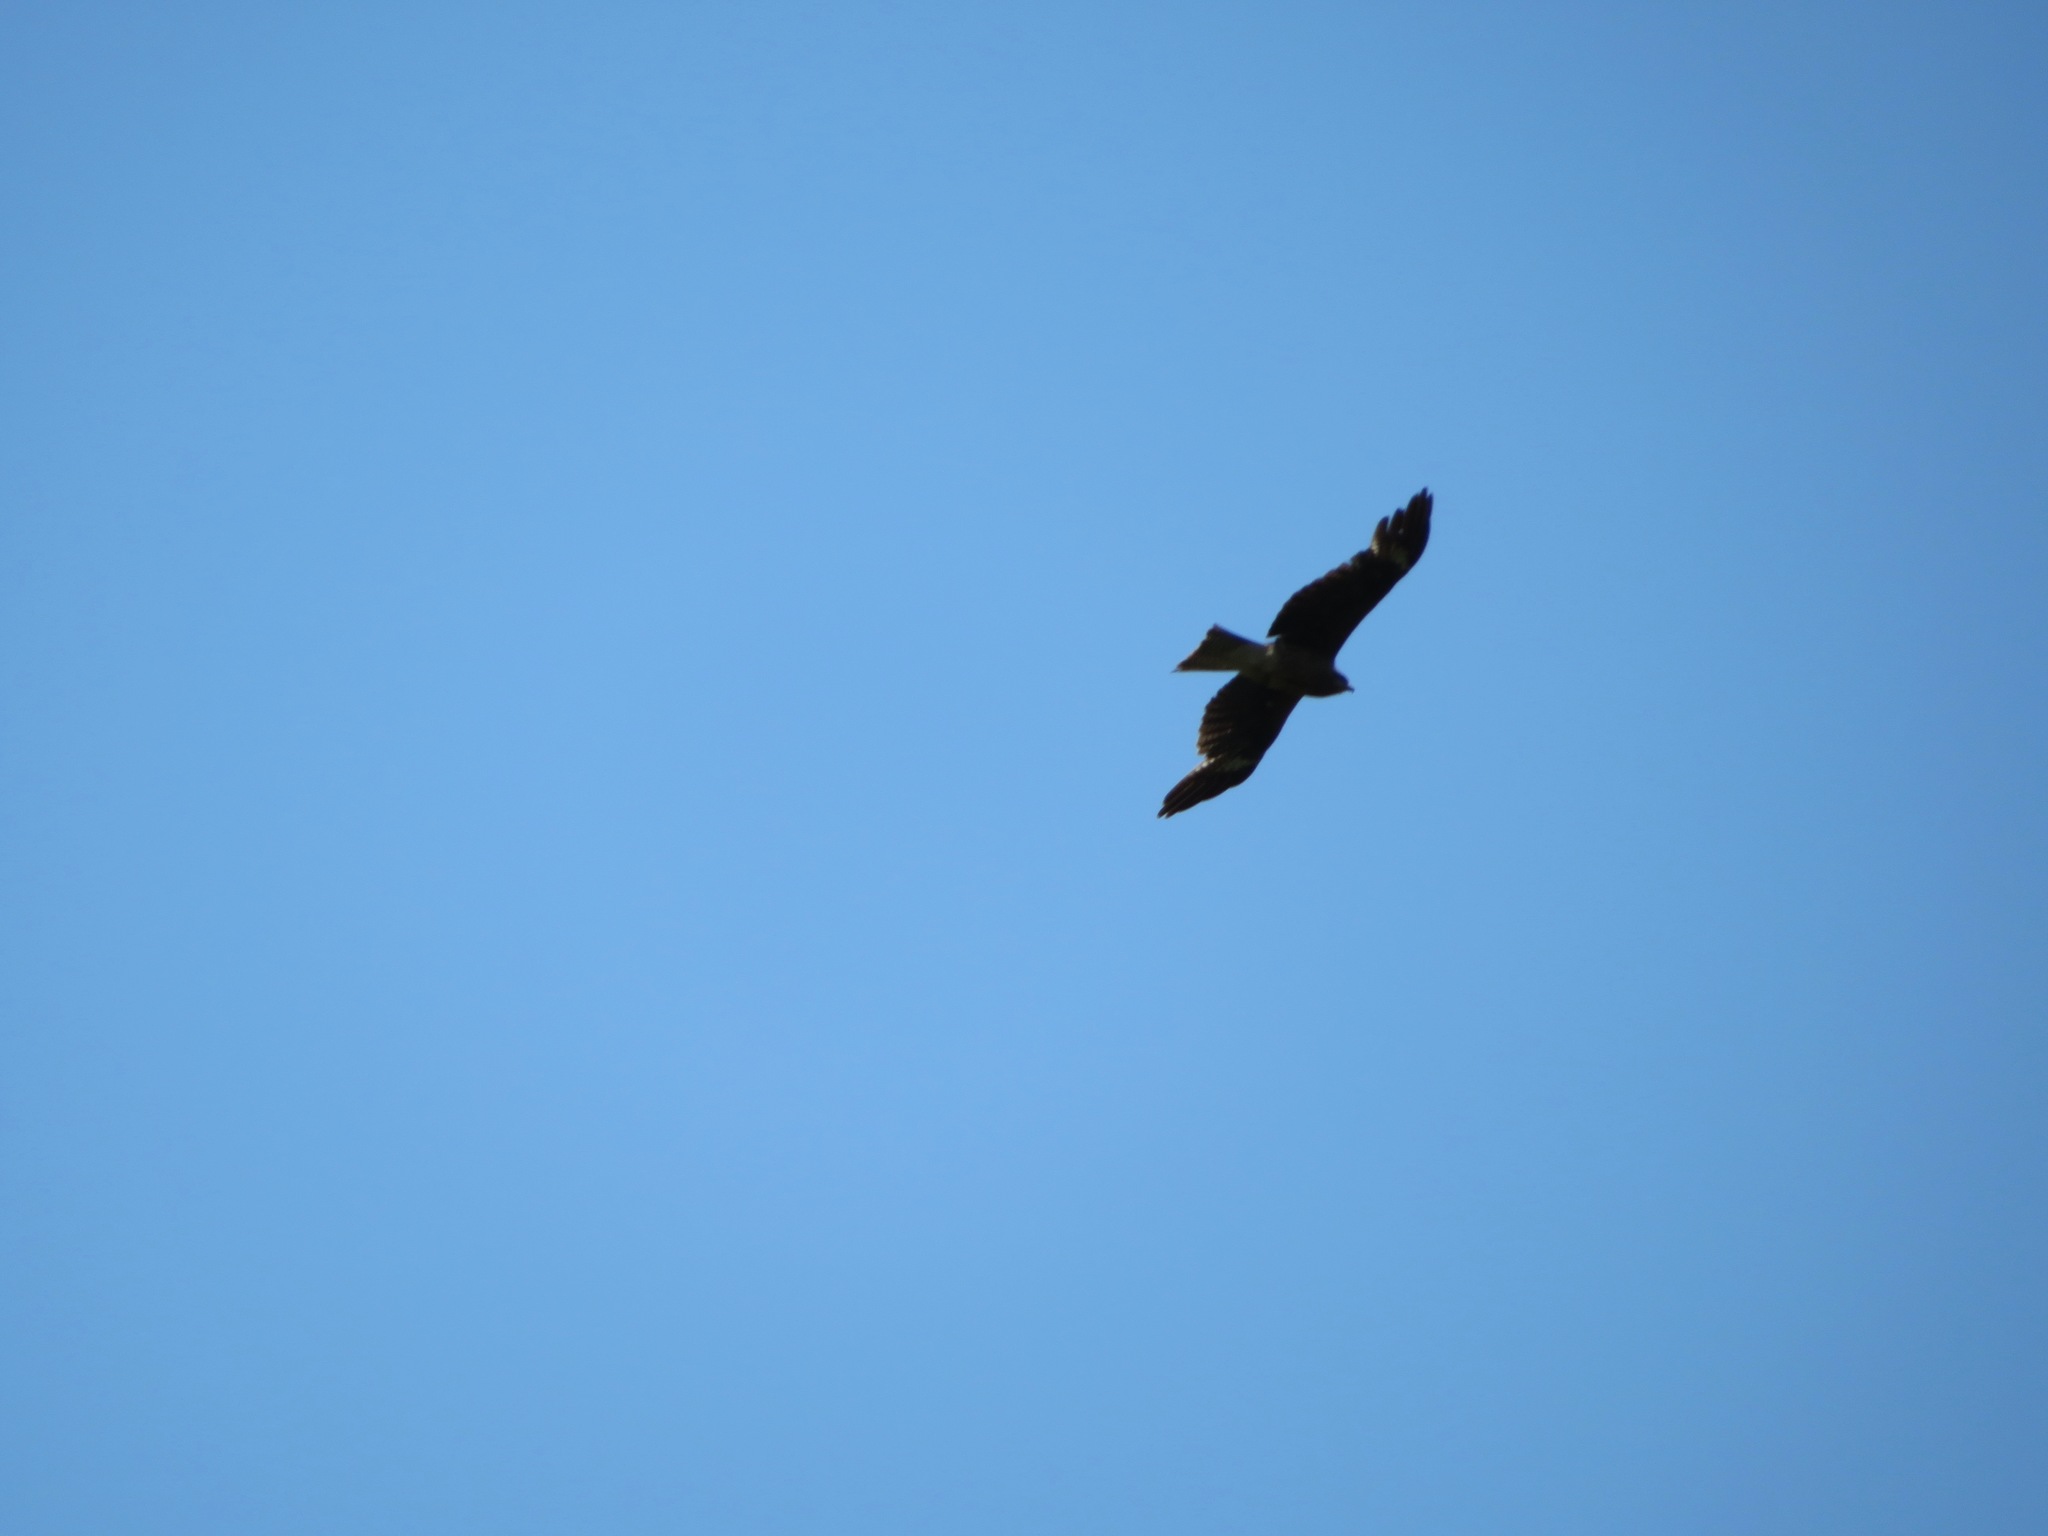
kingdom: Animalia
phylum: Chordata
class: Aves
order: Accipitriformes
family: Accipitridae
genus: Milvus
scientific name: Milvus migrans
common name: Black kite
